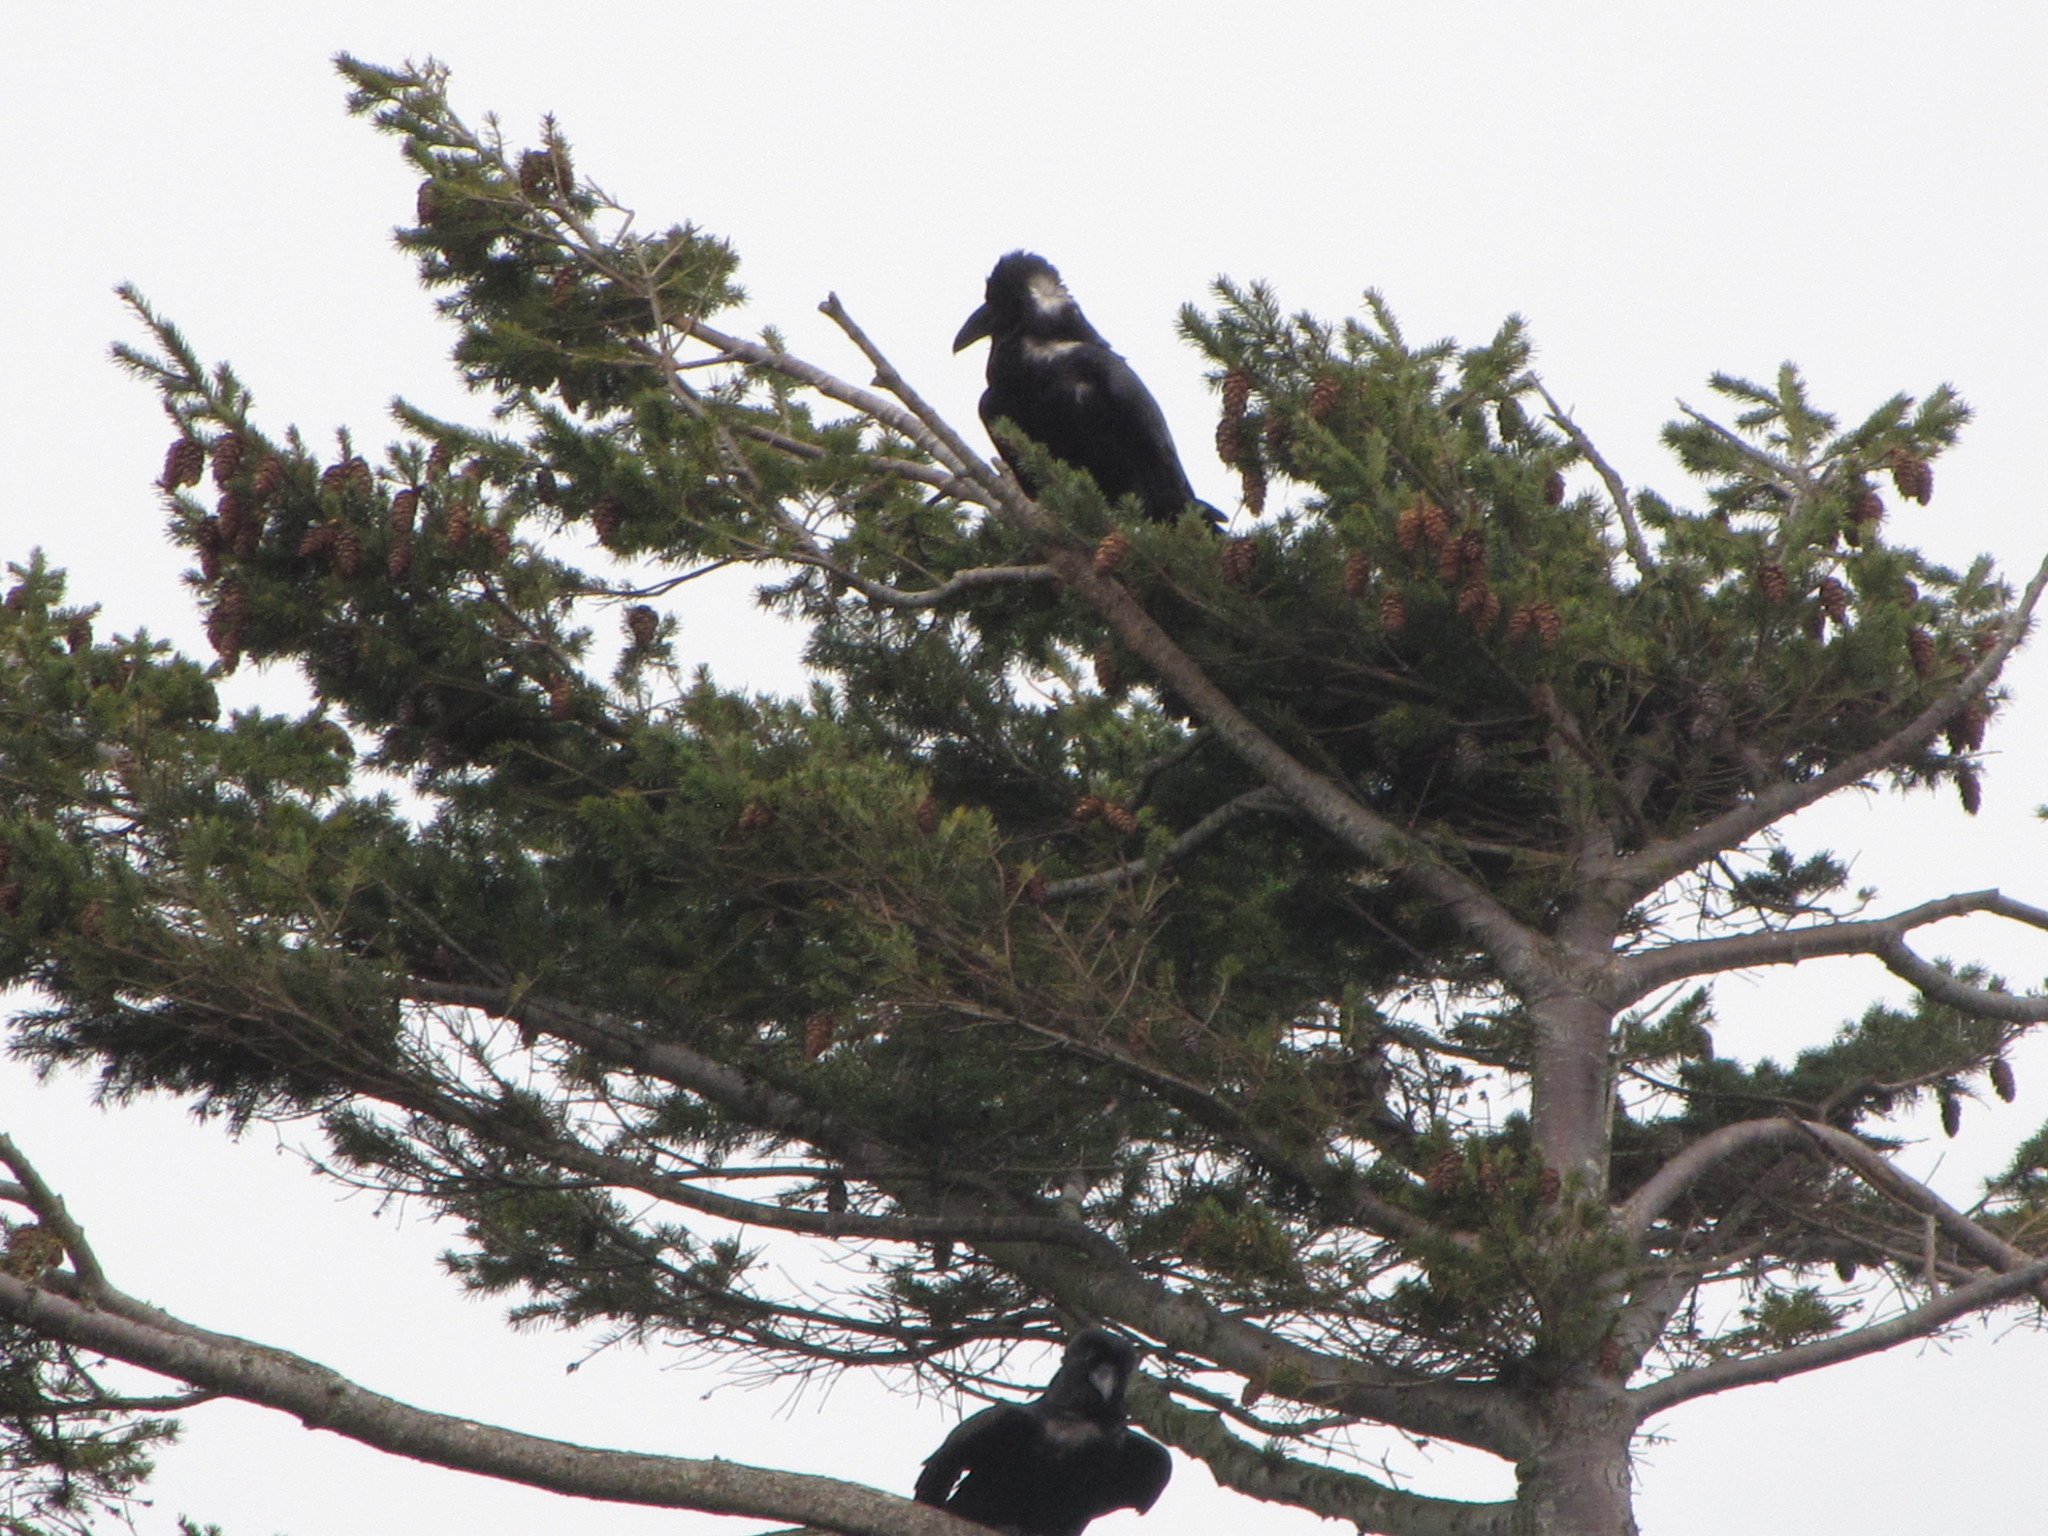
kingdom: Animalia
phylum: Chordata
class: Aves
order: Passeriformes
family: Corvidae
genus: Corvus
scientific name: Corvus corax
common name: Common raven
